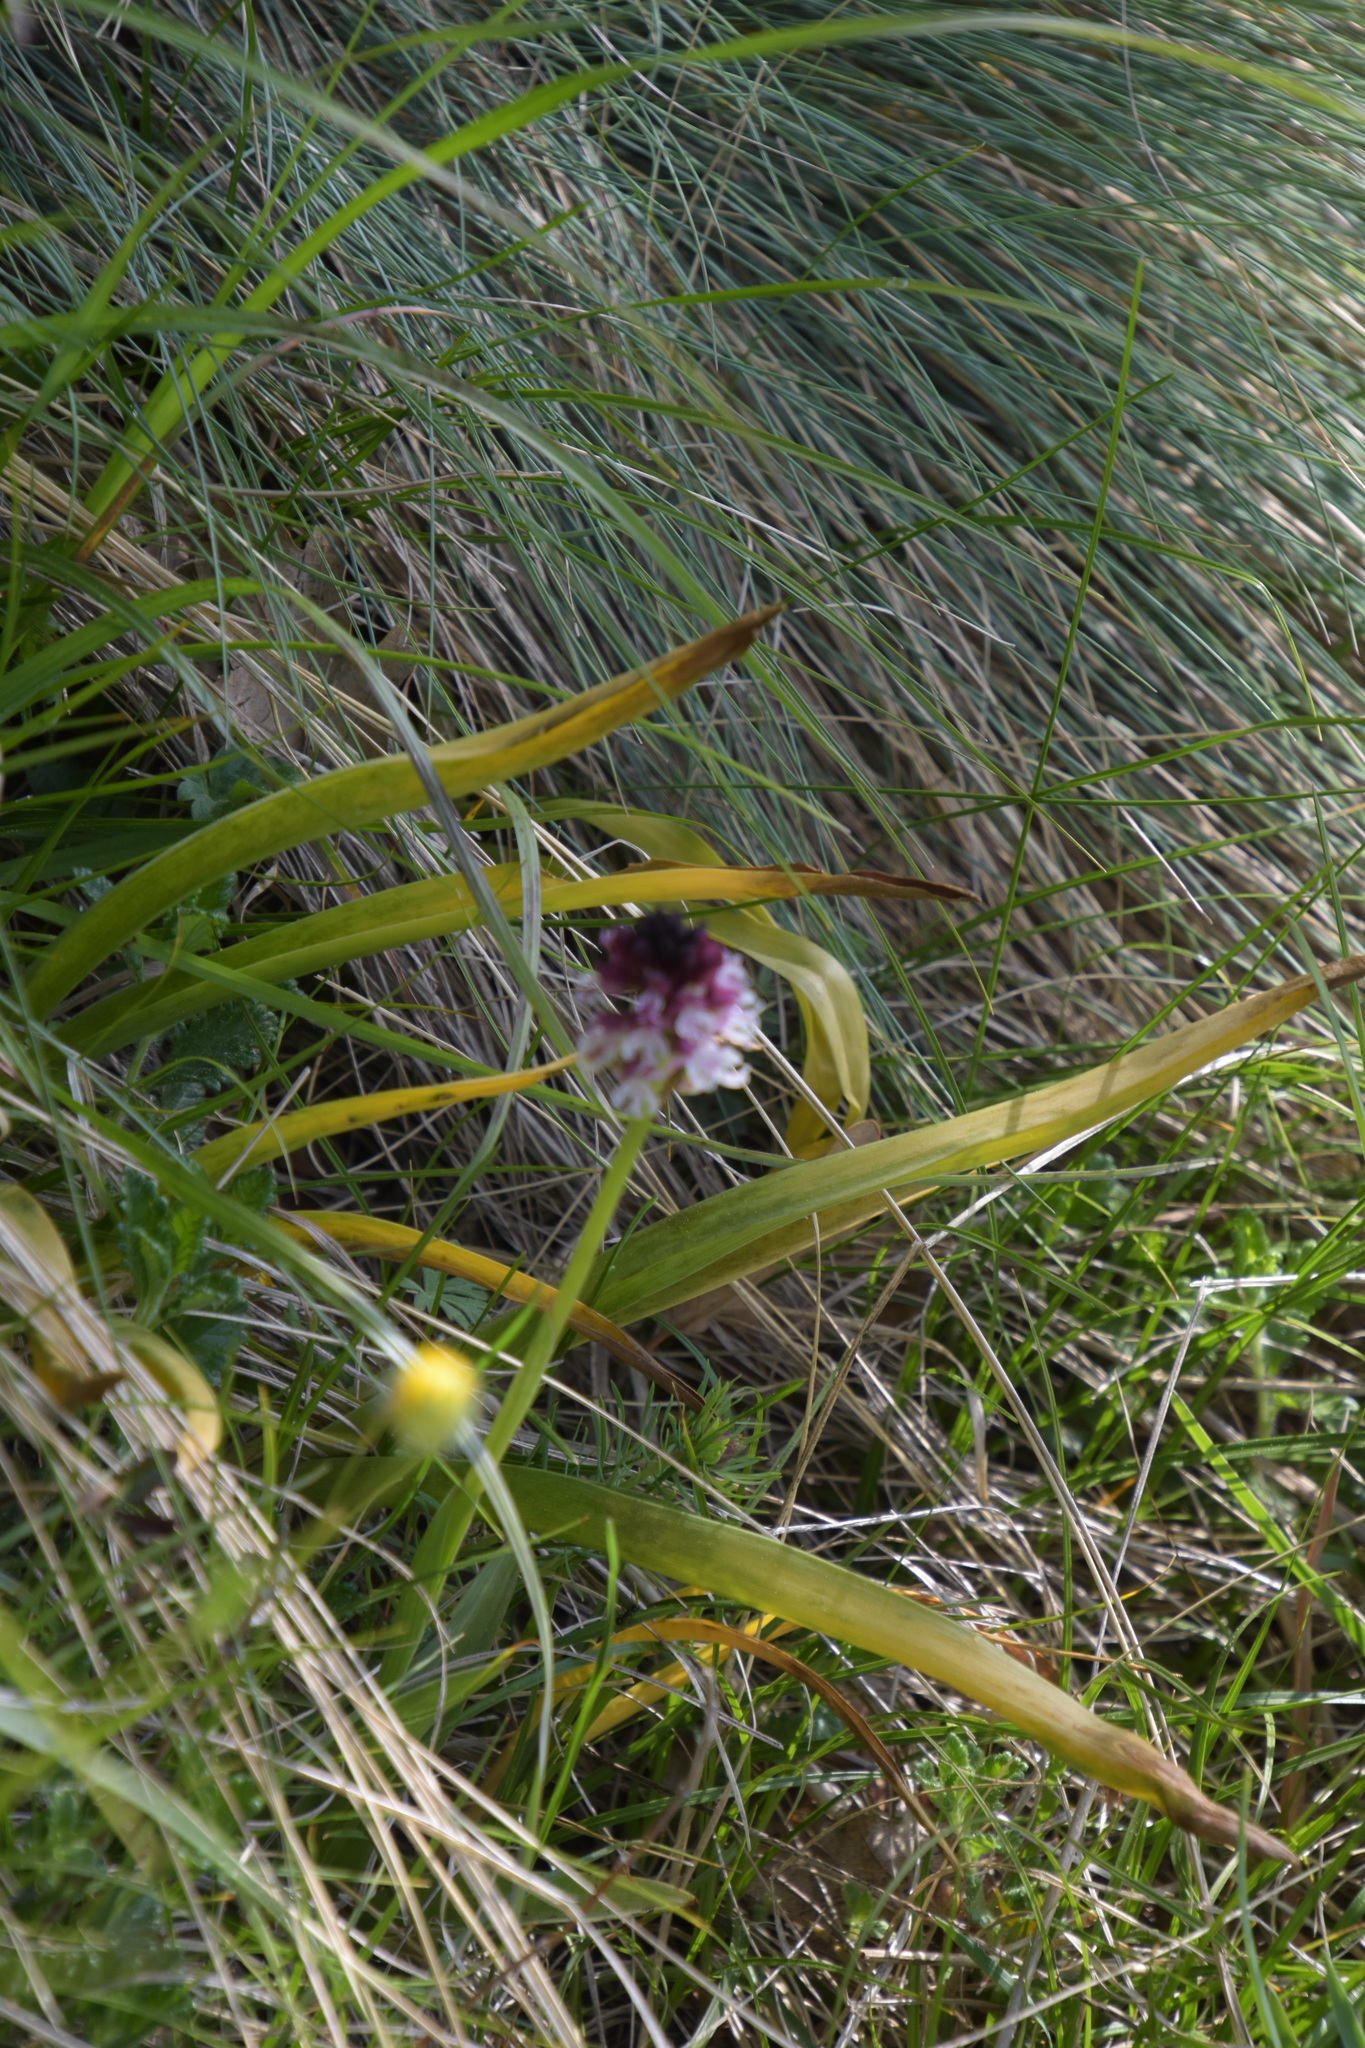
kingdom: Plantae
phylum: Tracheophyta
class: Liliopsida
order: Asparagales
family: Orchidaceae
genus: Neotinea
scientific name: Neotinea ustulata
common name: Burnt orchid
